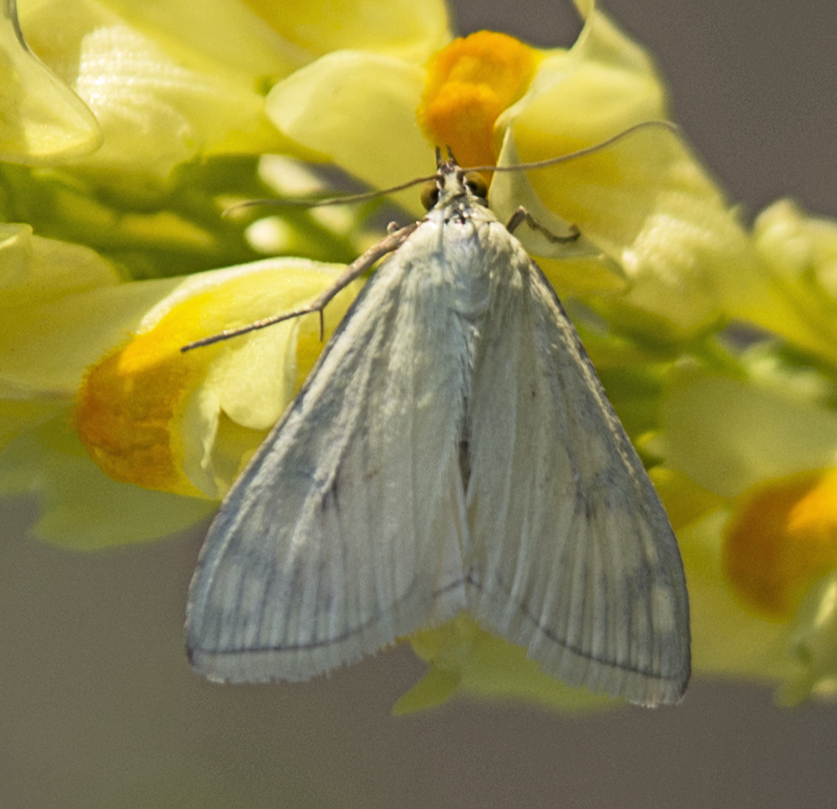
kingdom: Animalia
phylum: Arthropoda
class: Insecta
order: Lepidoptera
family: Crambidae
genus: Sitochroa
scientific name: Sitochroa palealis
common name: Greenish-yellow sitochroa moth
